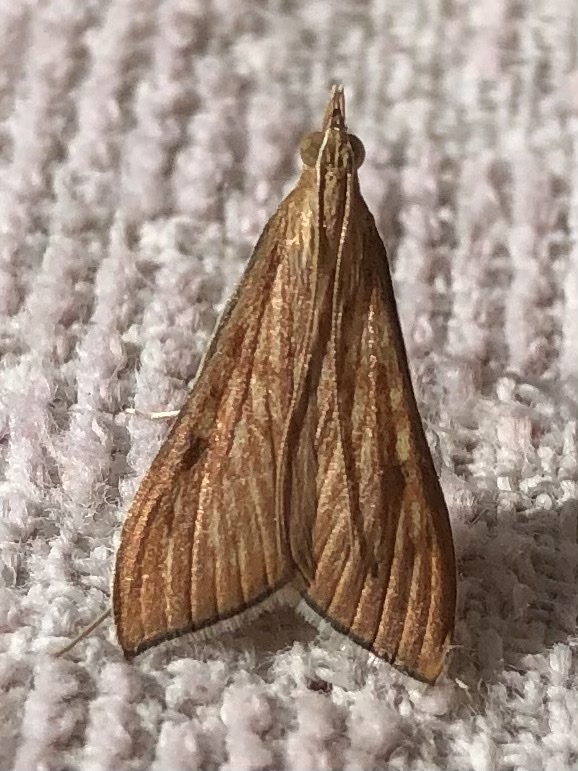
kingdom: Animalia
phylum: Arthropoda
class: Insecta
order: Lepidoptera
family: Crambidae
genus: Antigastra
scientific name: Antigastra catalaunalis
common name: Spanish dot
